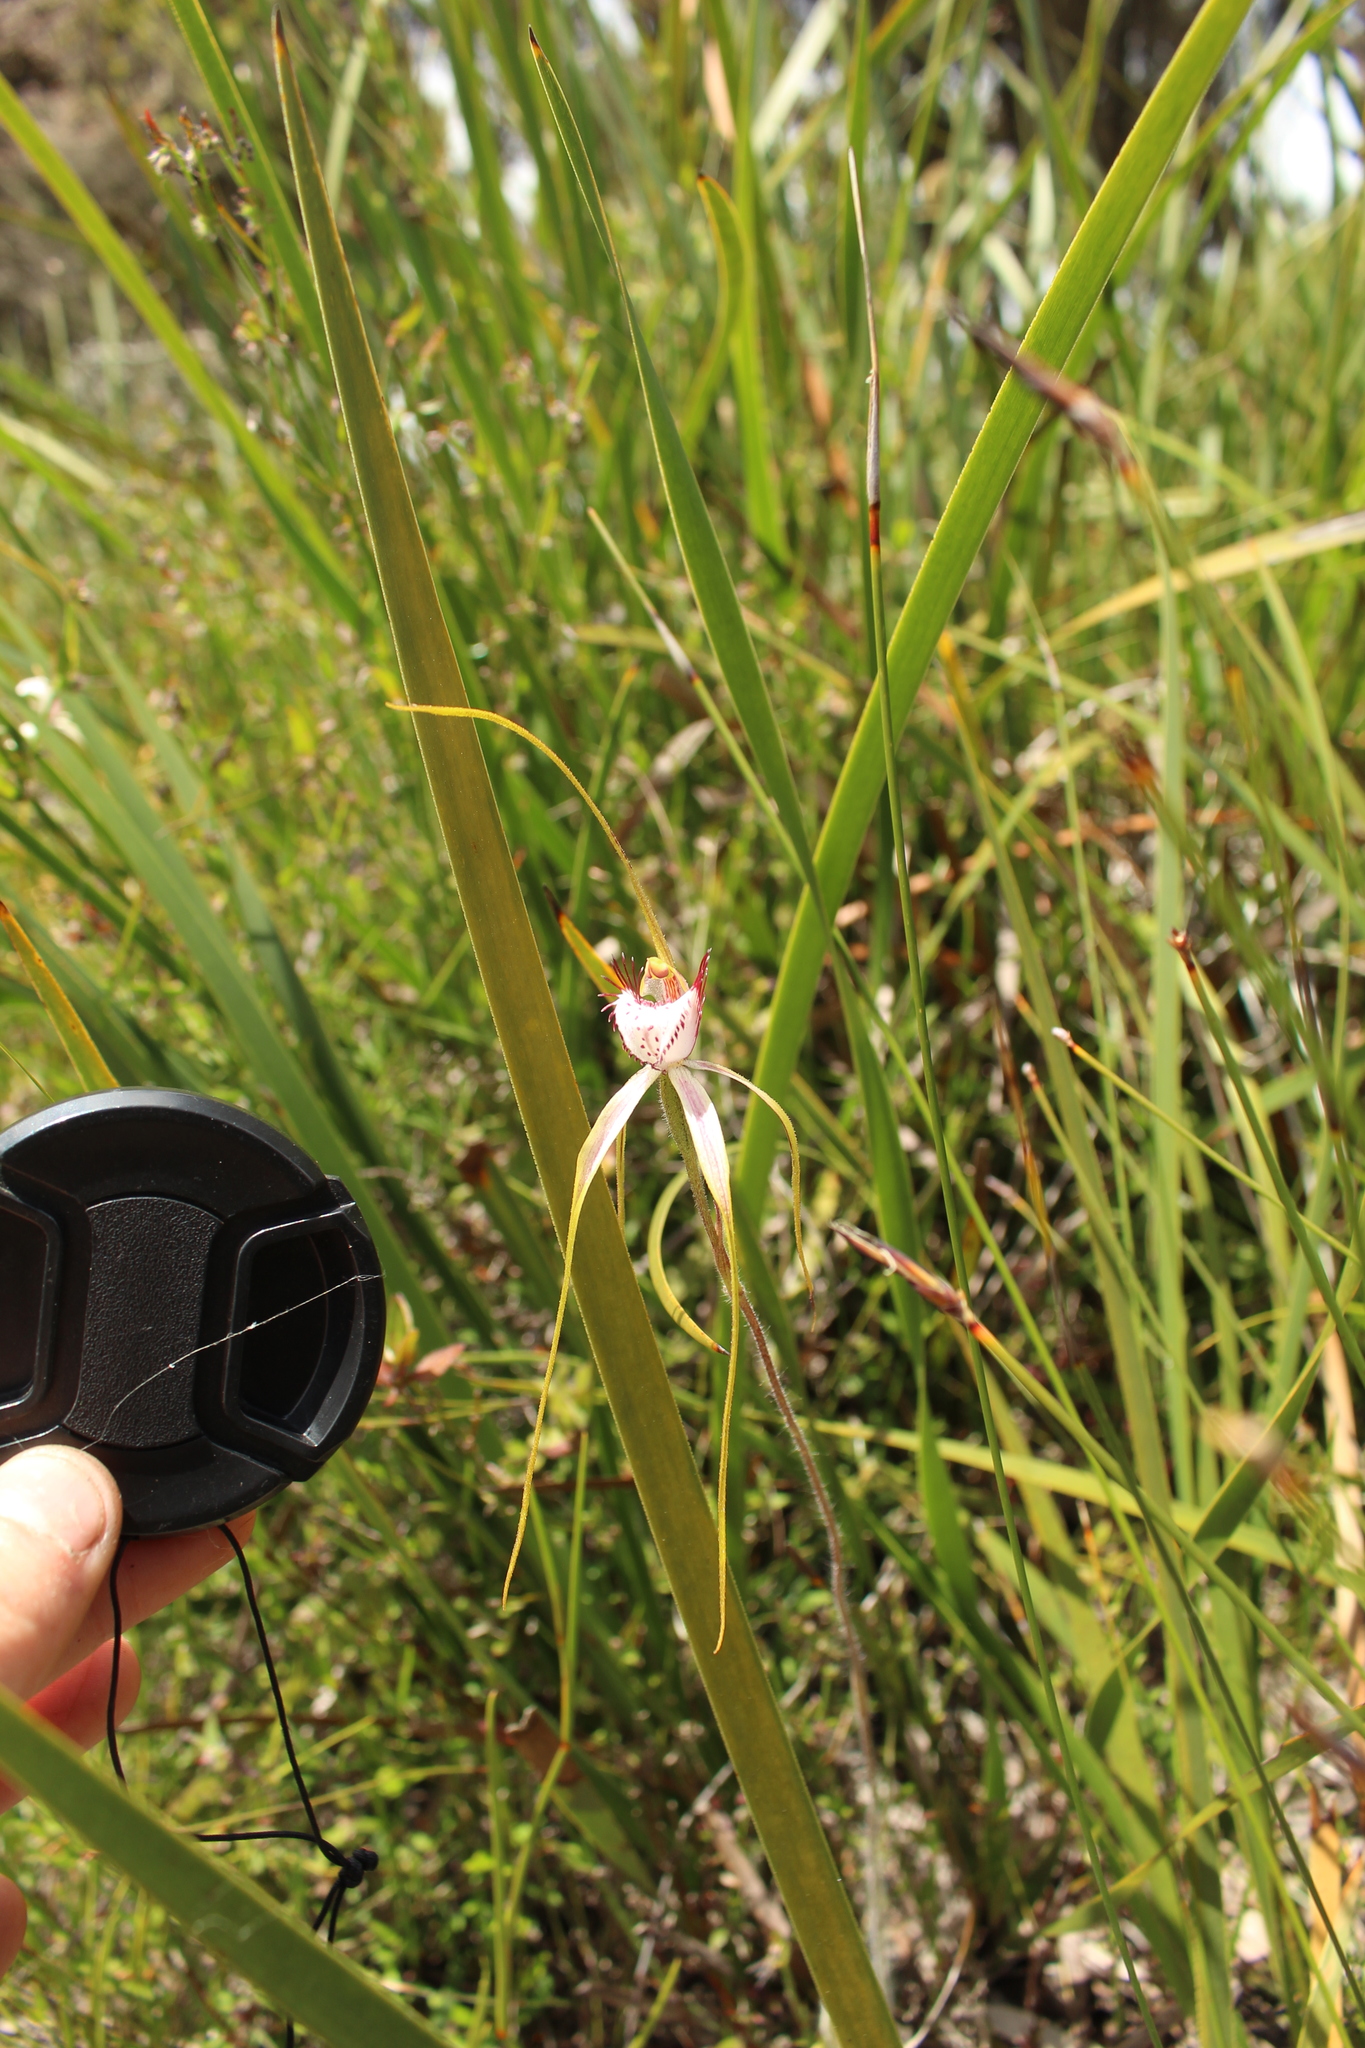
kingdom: Plantae
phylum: Tracheophyta
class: Liliopsida
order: Asparagales
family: Orchidaceae
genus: Caladenia
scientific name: Caladenia serotina
